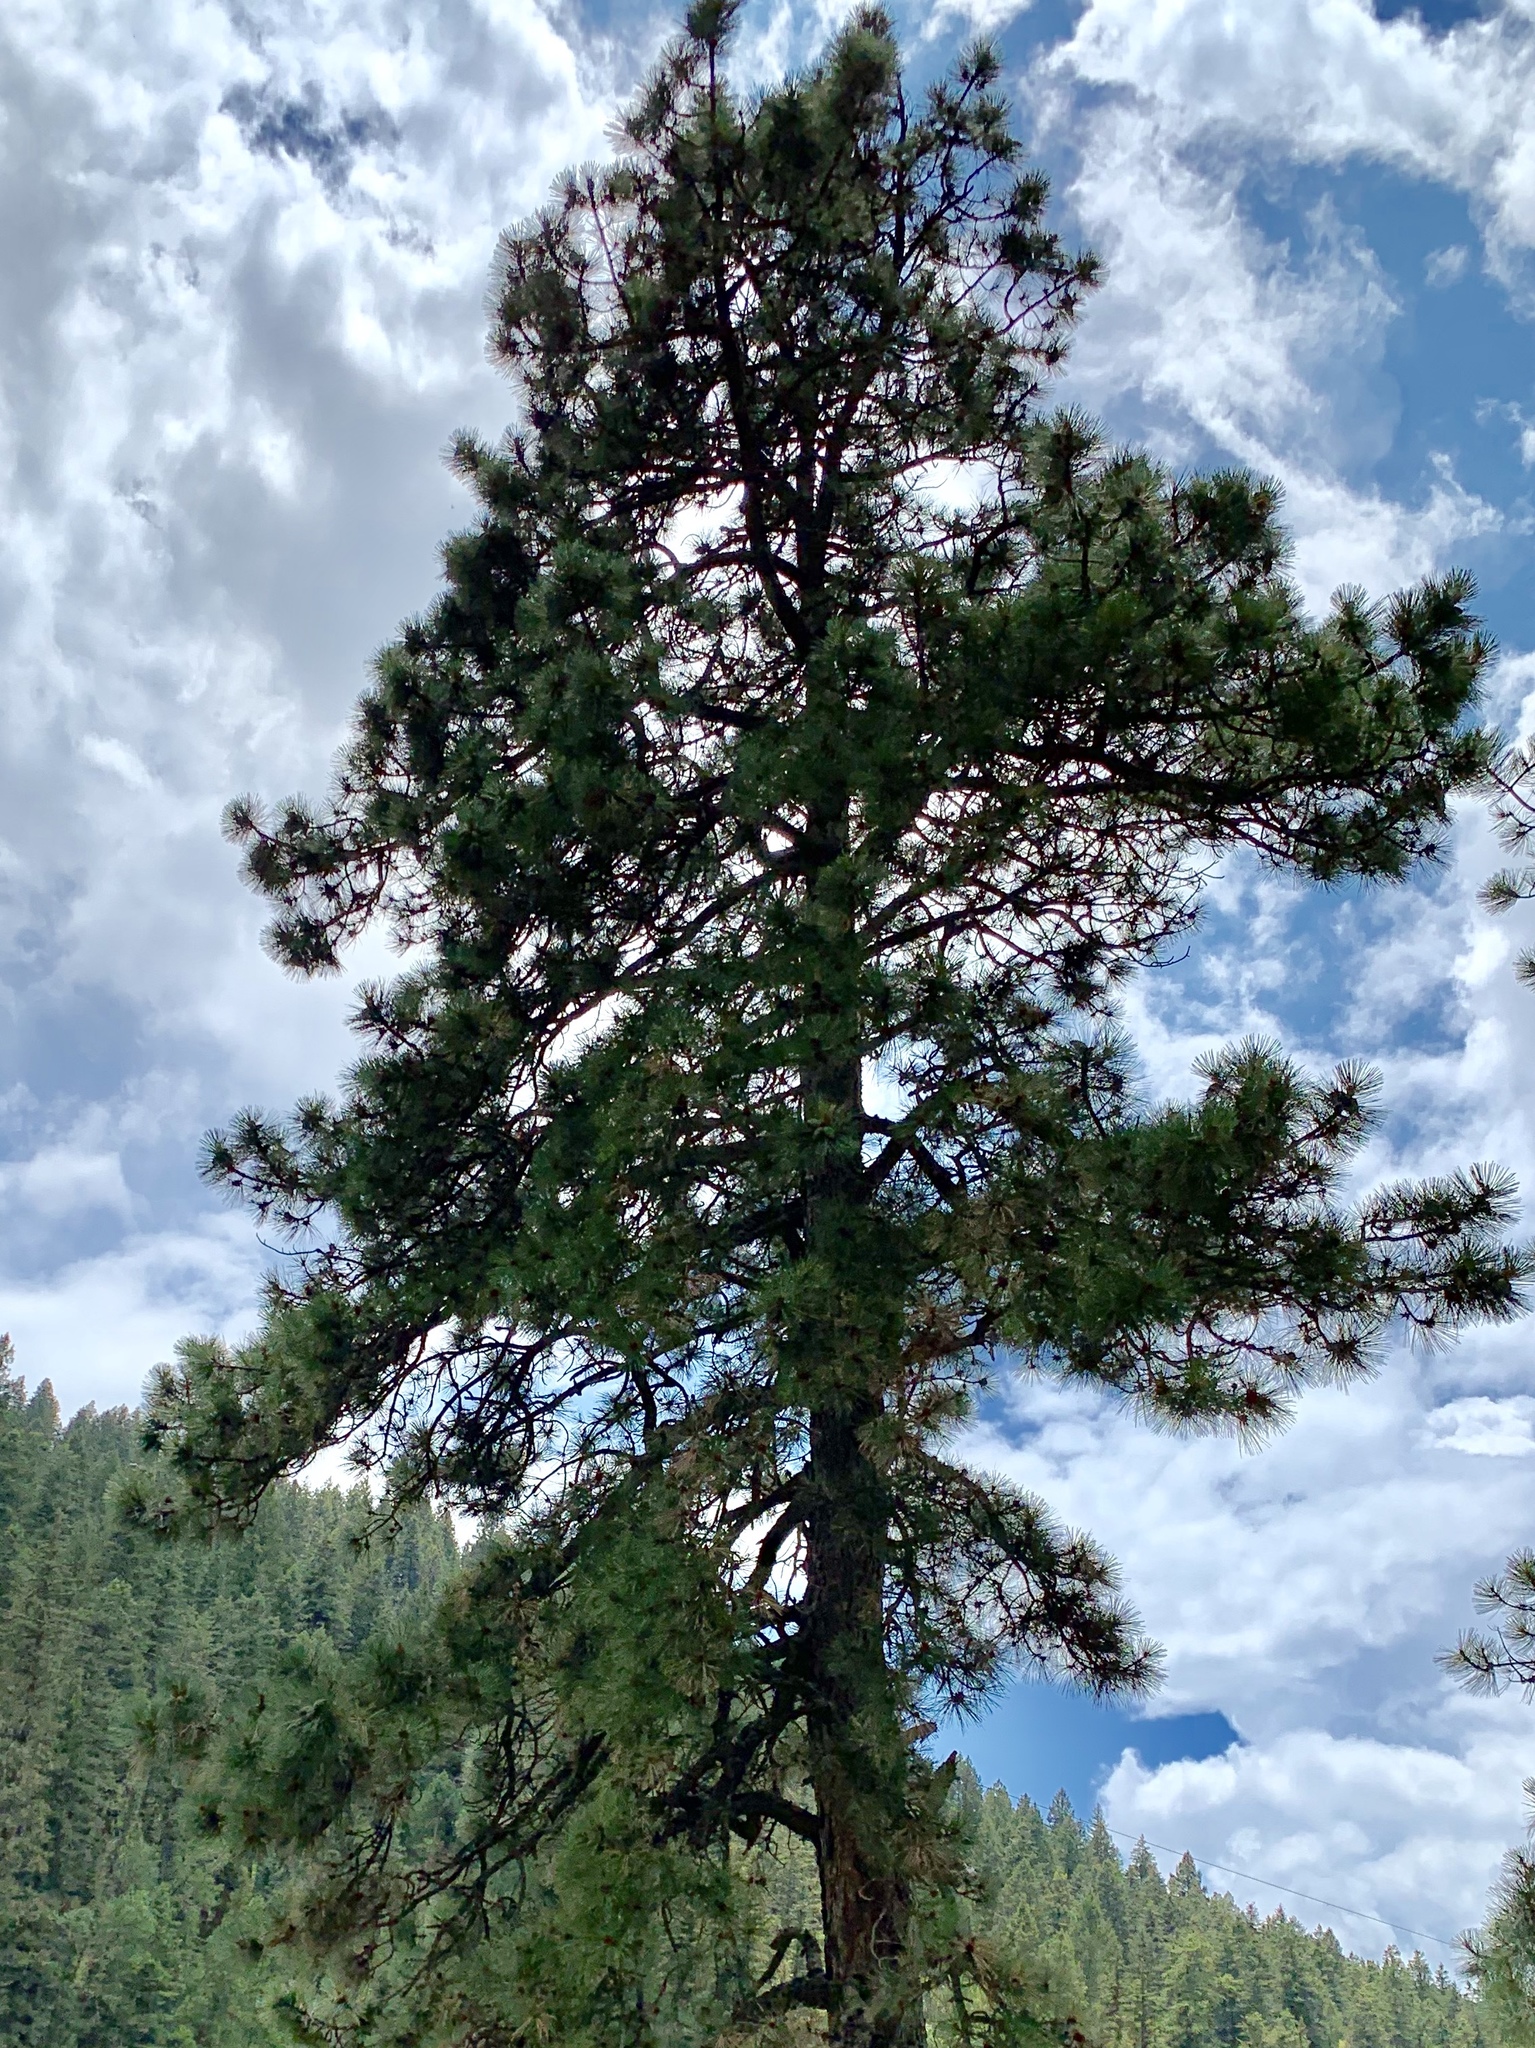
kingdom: Plantae
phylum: Tracheophyta
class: Pinopsida
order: Pinales
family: Pinaceae
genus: Pinus
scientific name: Pinus ponderosa
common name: Western yellow-pine
